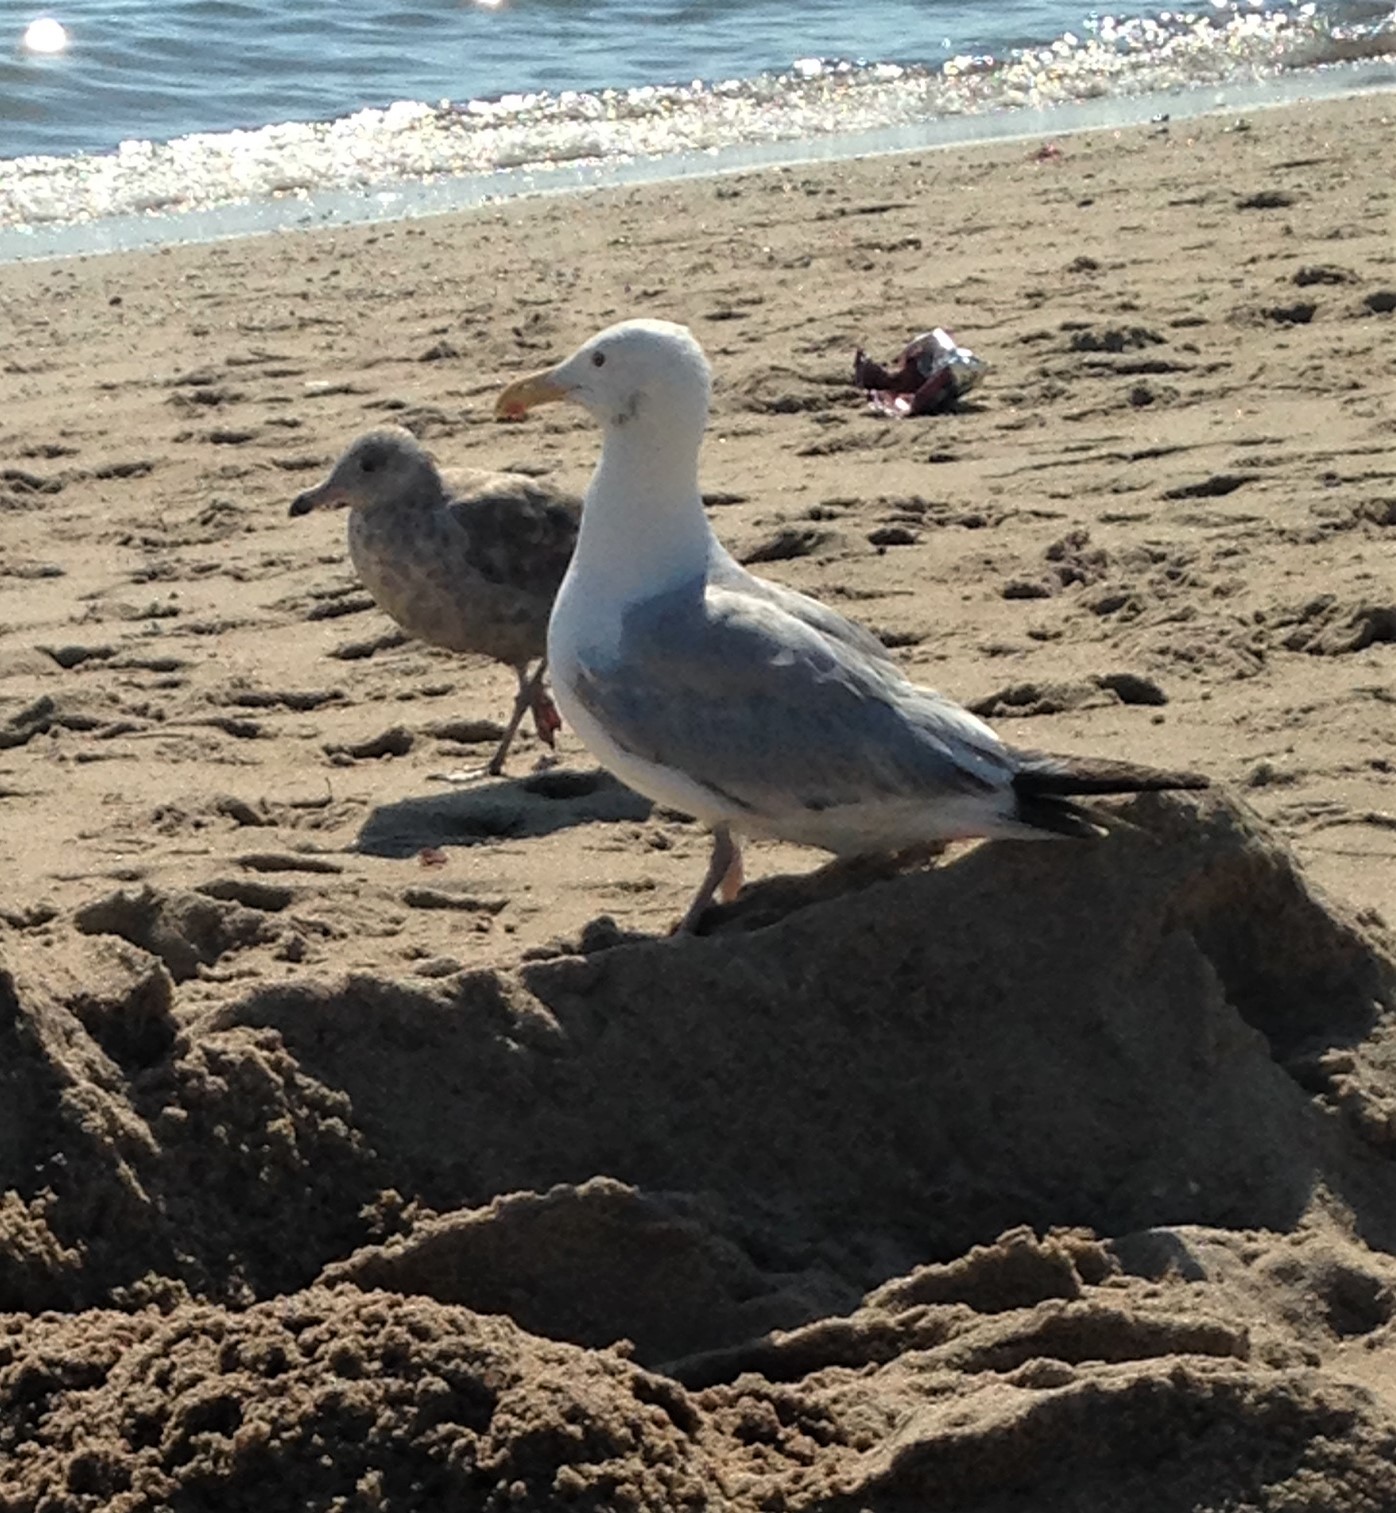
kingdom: Animalia
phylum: Chordata
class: Aves
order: Charadriiformes
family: Laridae
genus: Larus
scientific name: Larus argentatus
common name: Herring gull
